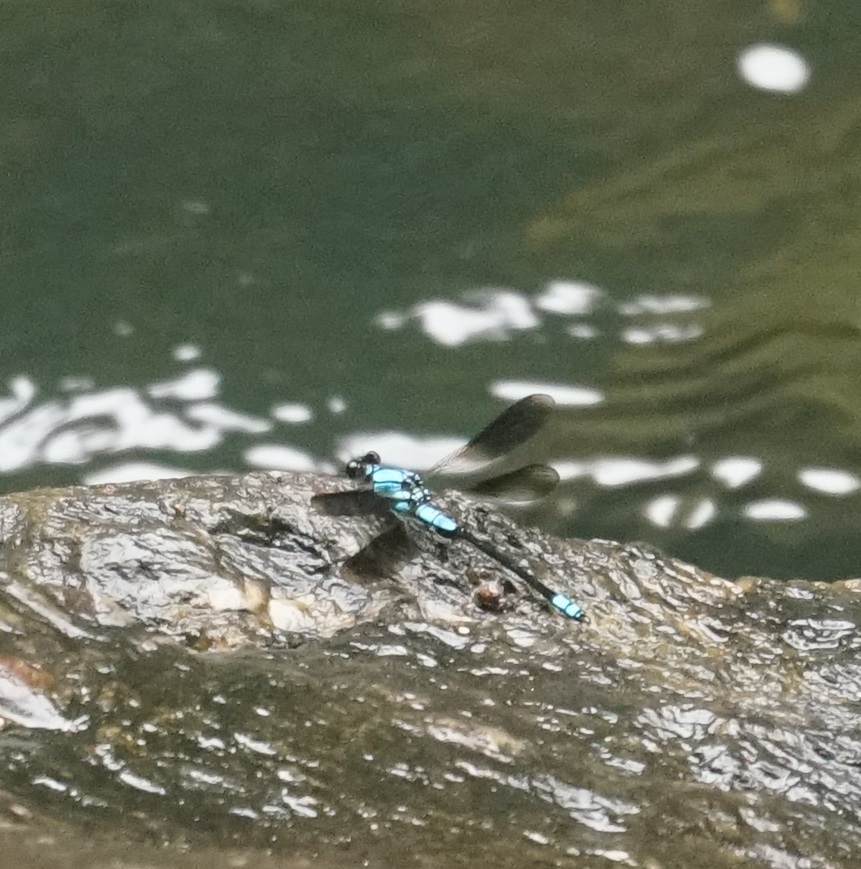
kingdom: Animalia
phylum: Arthropoda
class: Insecta
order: Odonata
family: Lestoideidae
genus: Diphlebia
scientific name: Diphlebia euphoeoides
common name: Tropical rockmaster
